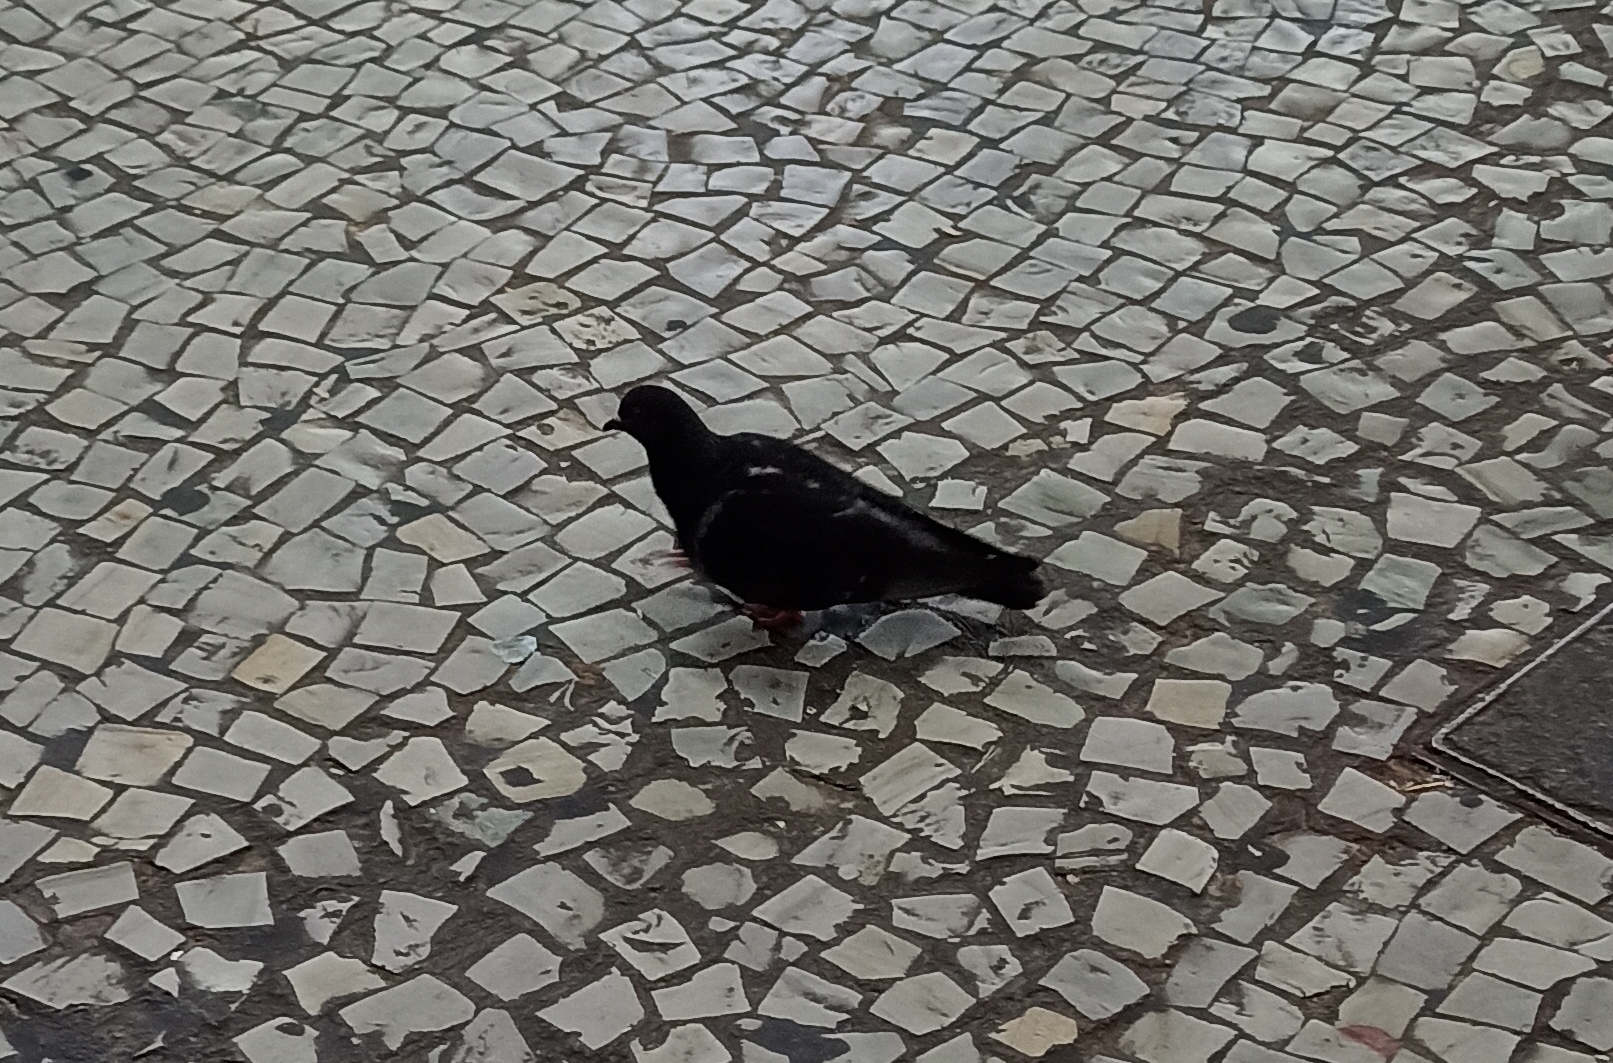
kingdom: Animalia
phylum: Chordata
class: Aves
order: Columbiformes
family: Columbidae
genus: Columba
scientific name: Columba livia
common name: Rock pigeon
